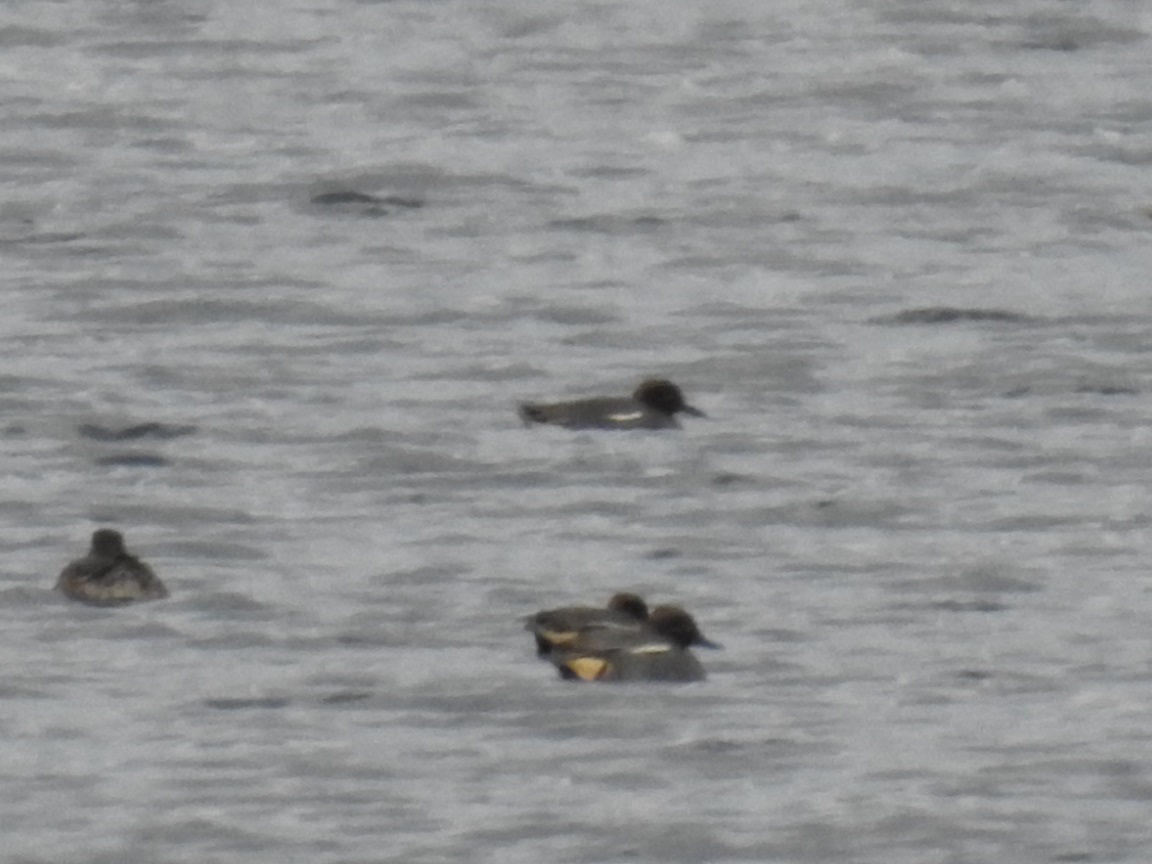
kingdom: Animalia
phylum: Chordata
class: Aves
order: Anseriformes
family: Anatidae
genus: Anas
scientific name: Anas crecca
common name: Eurasian teal
